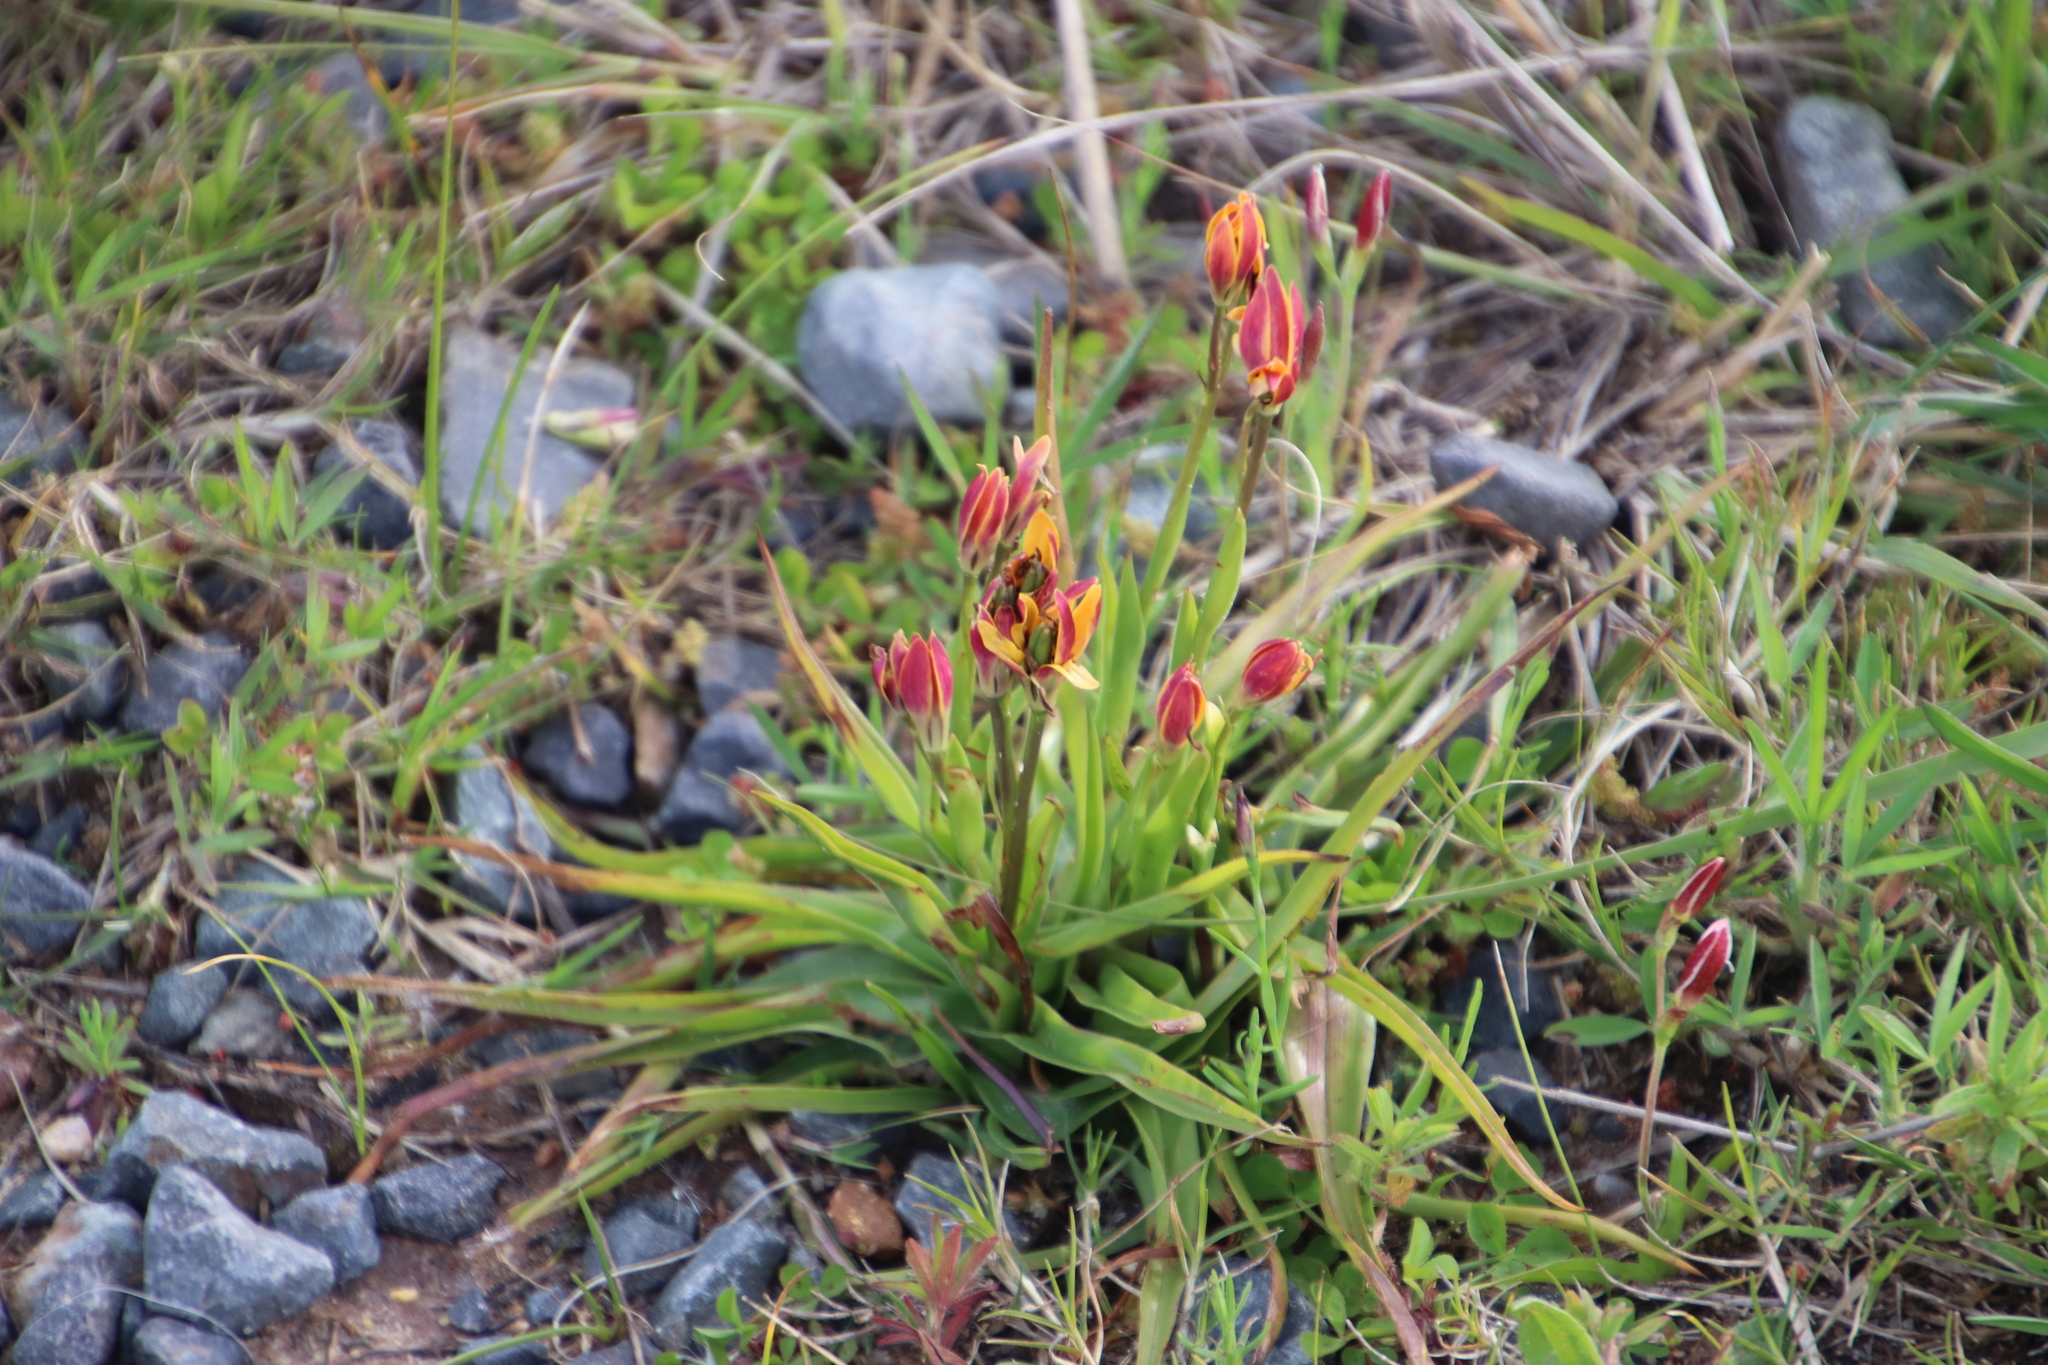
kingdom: Plantae
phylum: Tracheophyta
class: Liliopsida
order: Liliales
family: Colchicaceae
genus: Baeometra
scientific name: Baeometra uniflora
